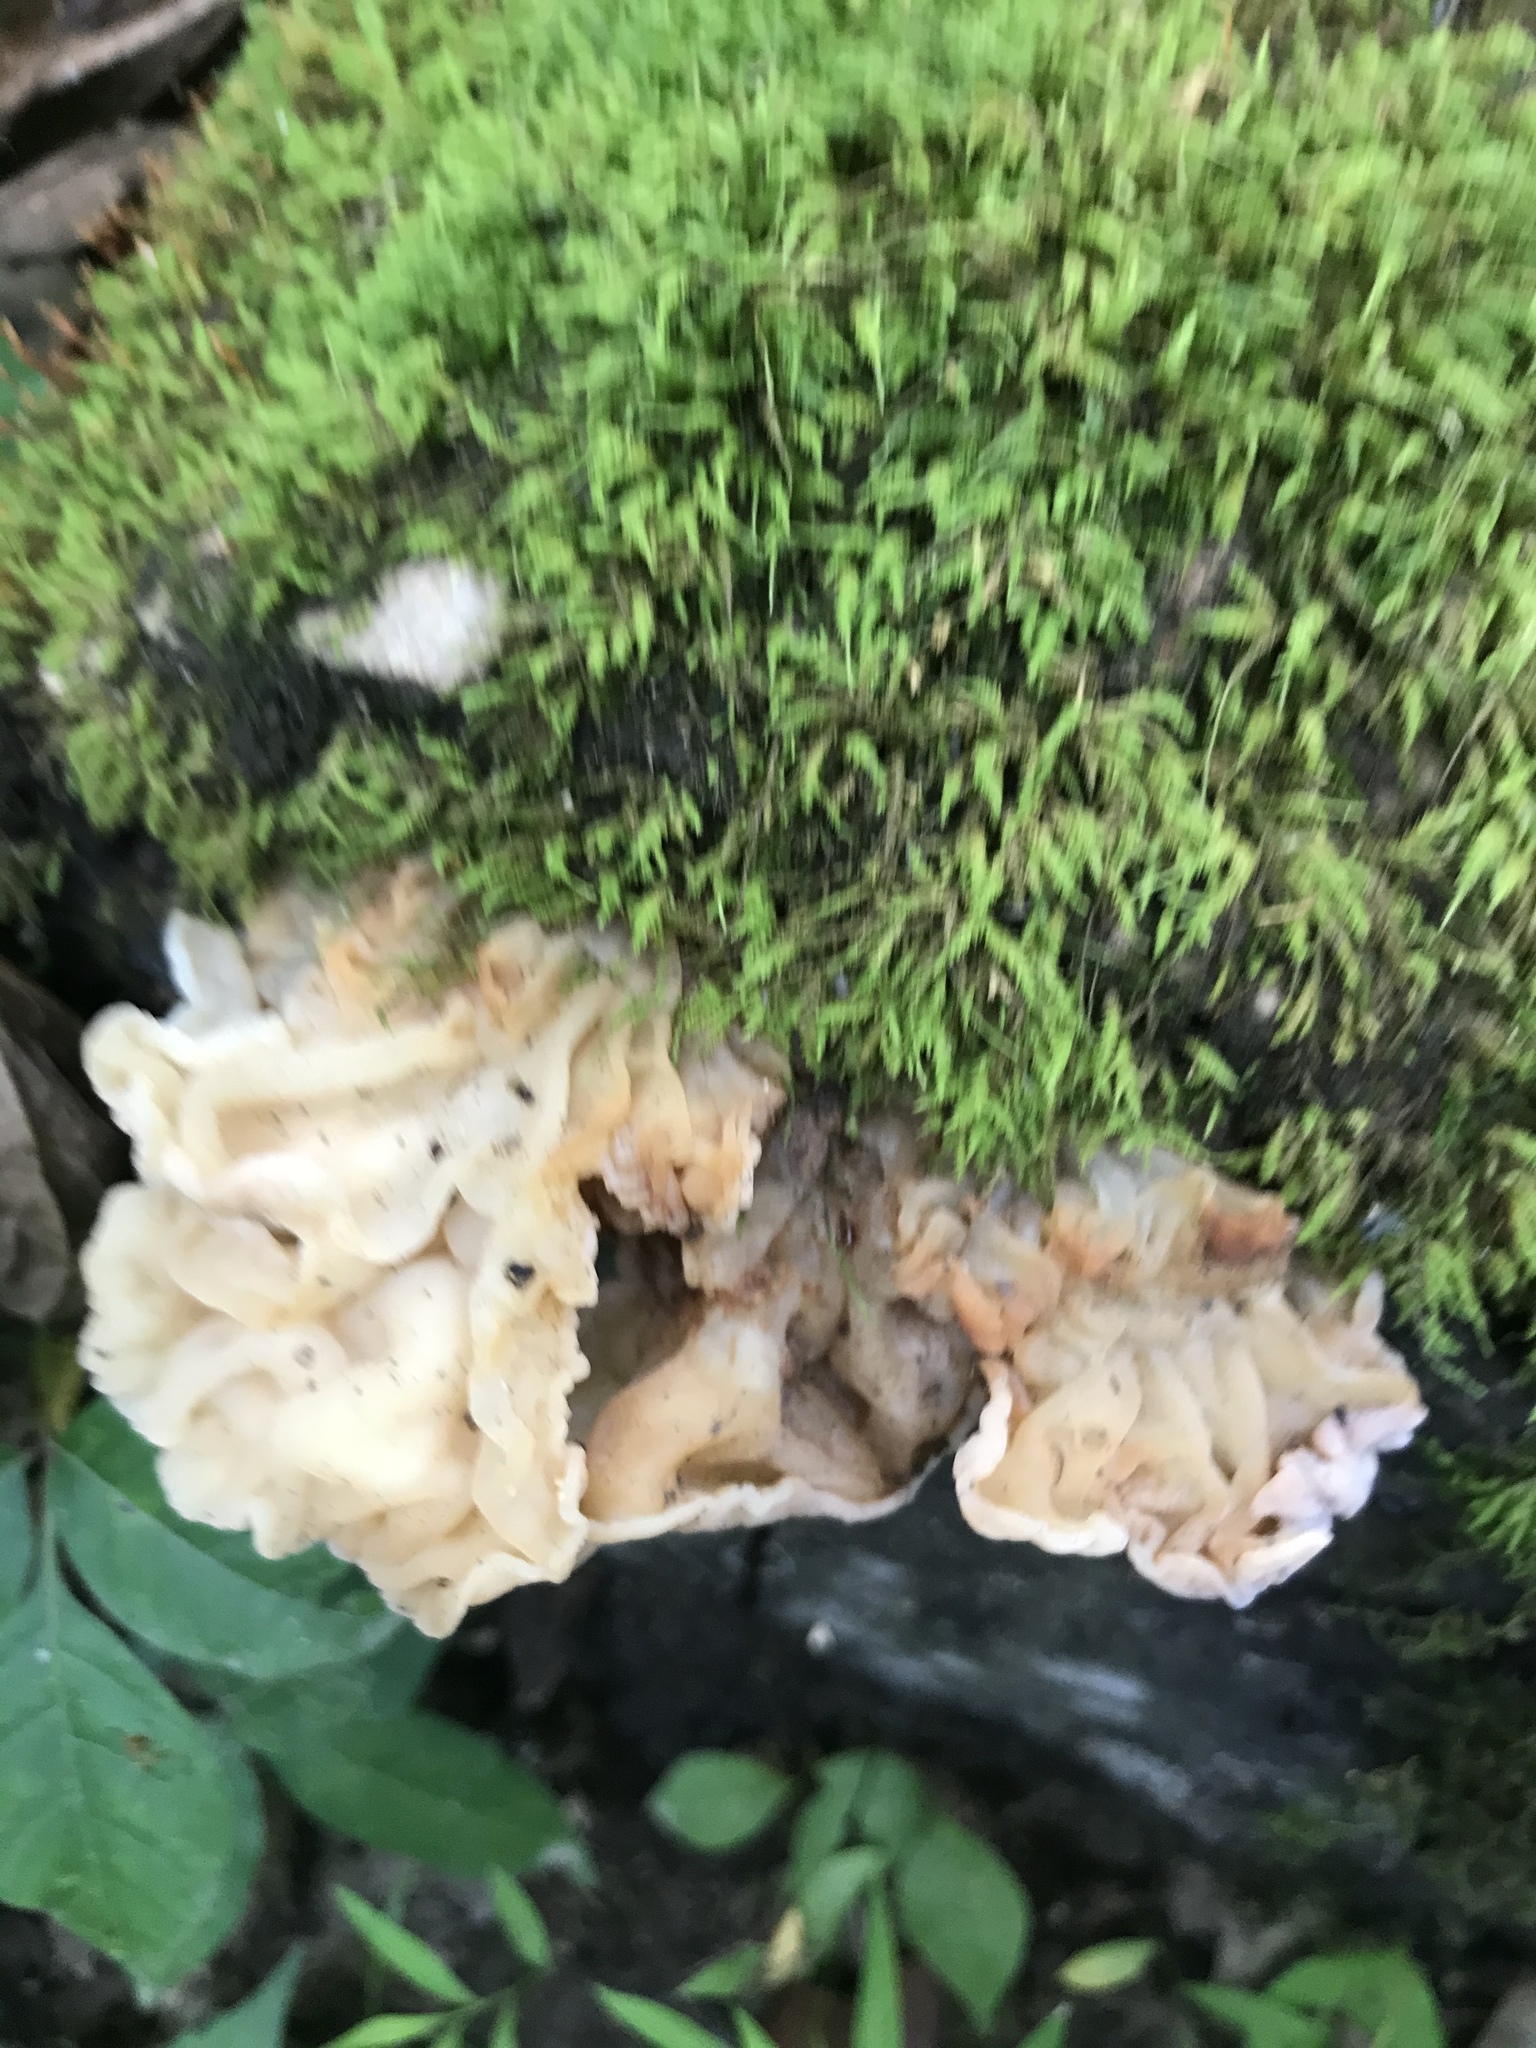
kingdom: Fungi
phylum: Basidiomycota
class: Agaricomycetes
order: Auriculariales
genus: Ductifera
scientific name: Ductifera pululahuana
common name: White jelly fungus
